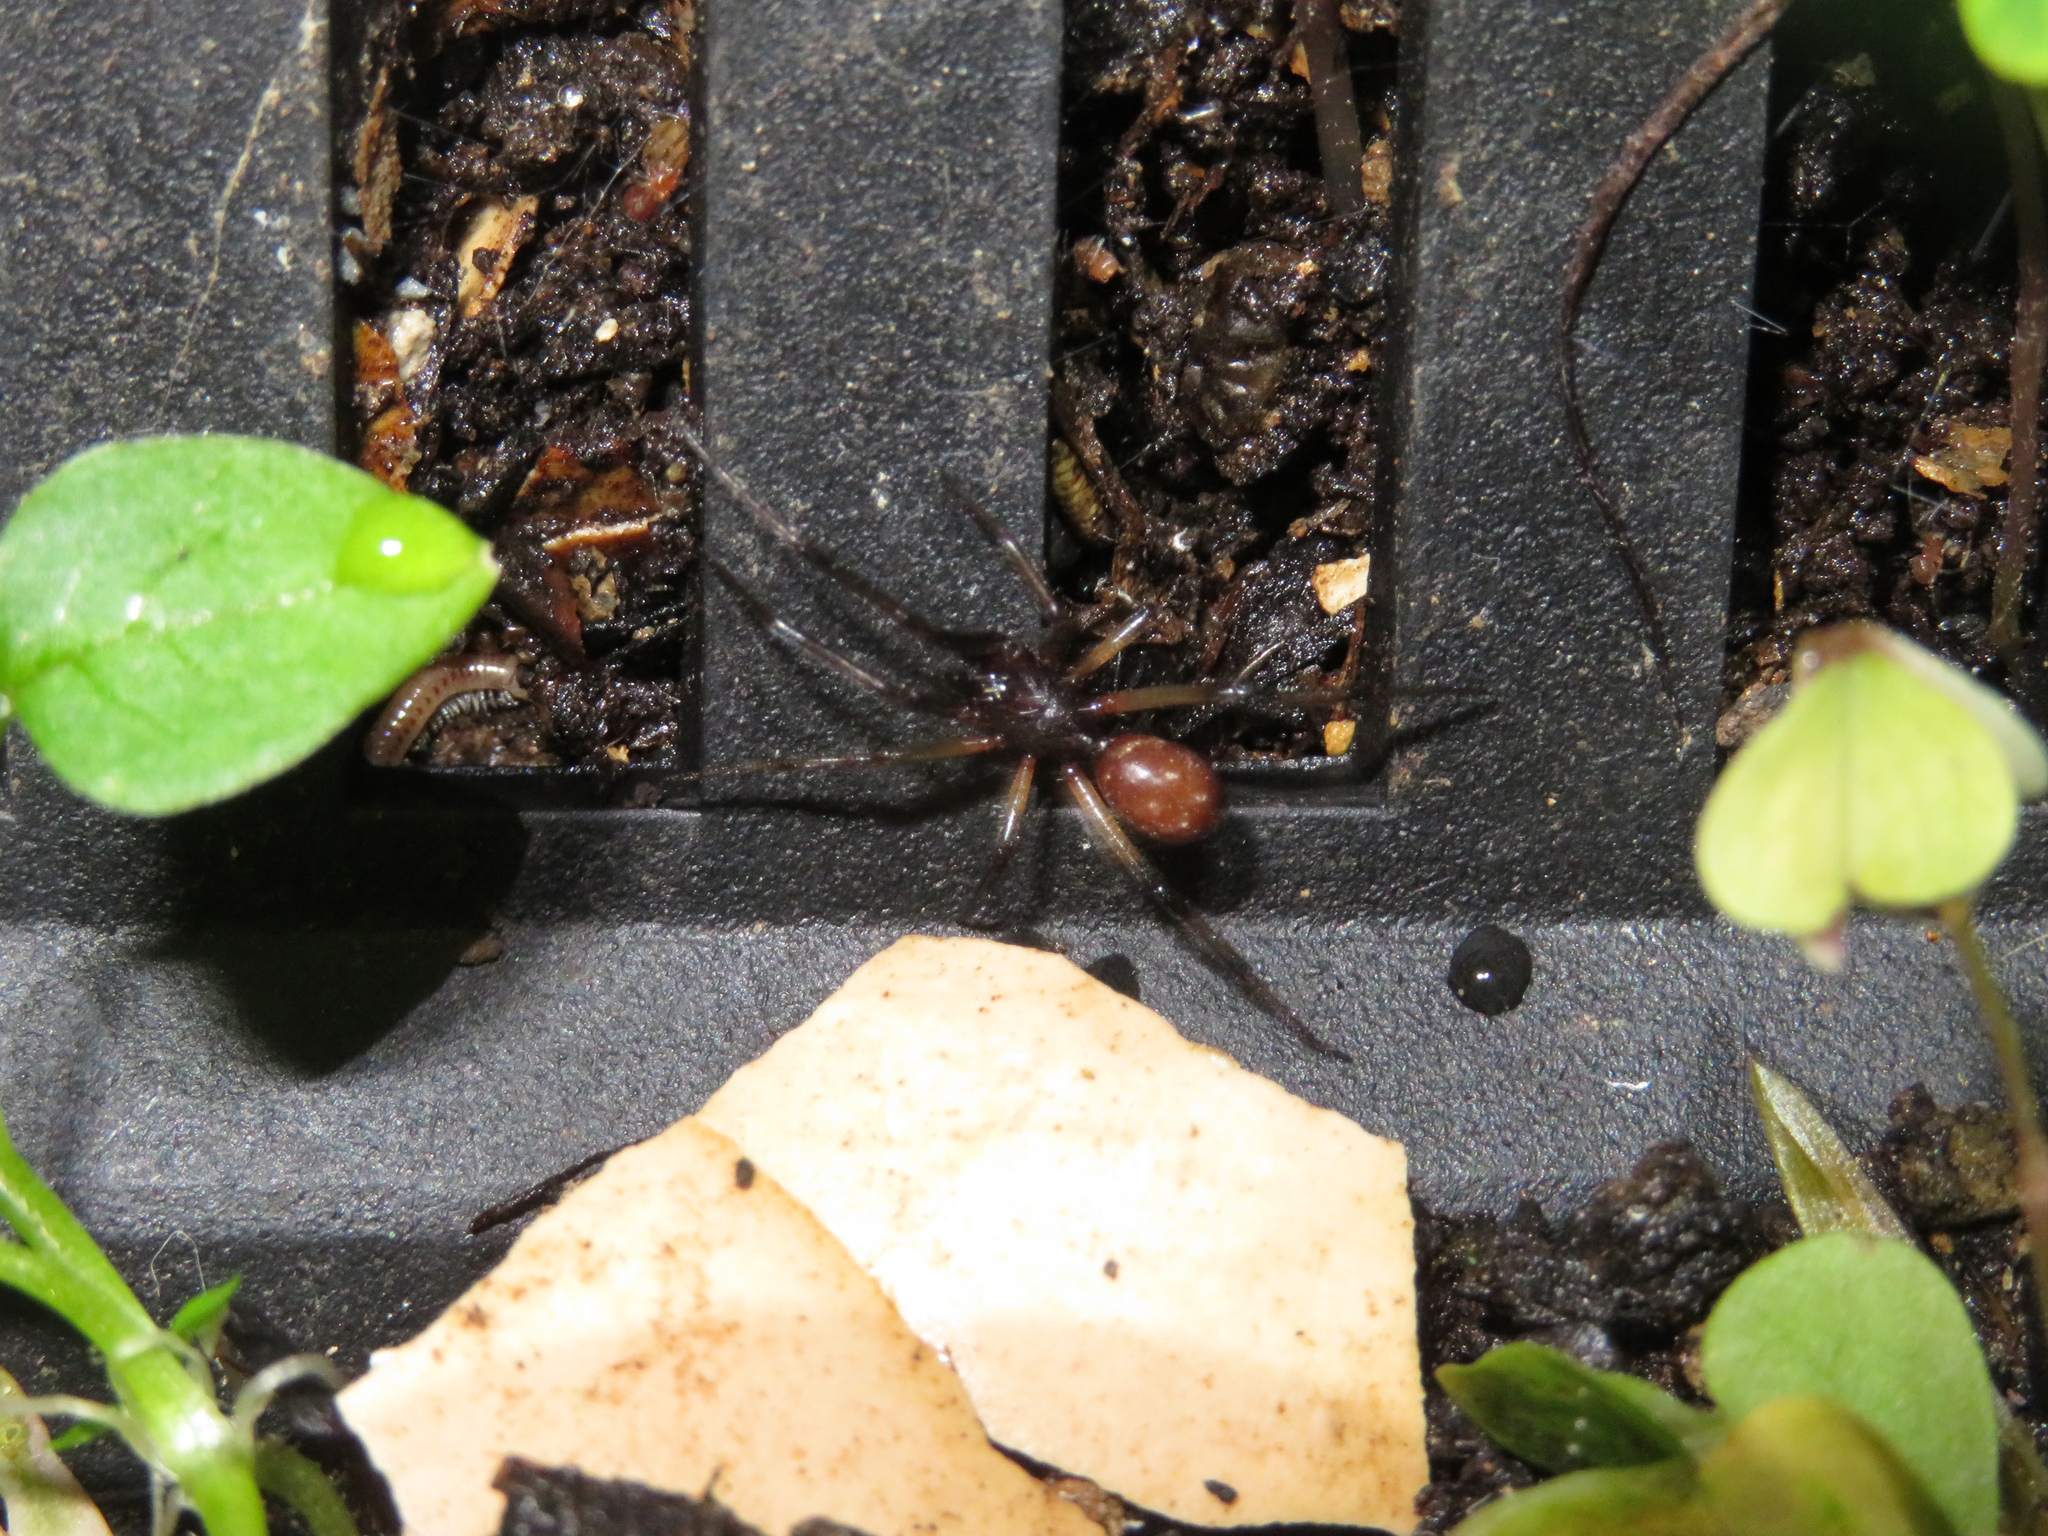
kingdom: Animalia
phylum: Arthropoda
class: Arachnida
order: Araneae
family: Theridiidae
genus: Steatoda
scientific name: Steatoda capensis
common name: Cobweb weaver
